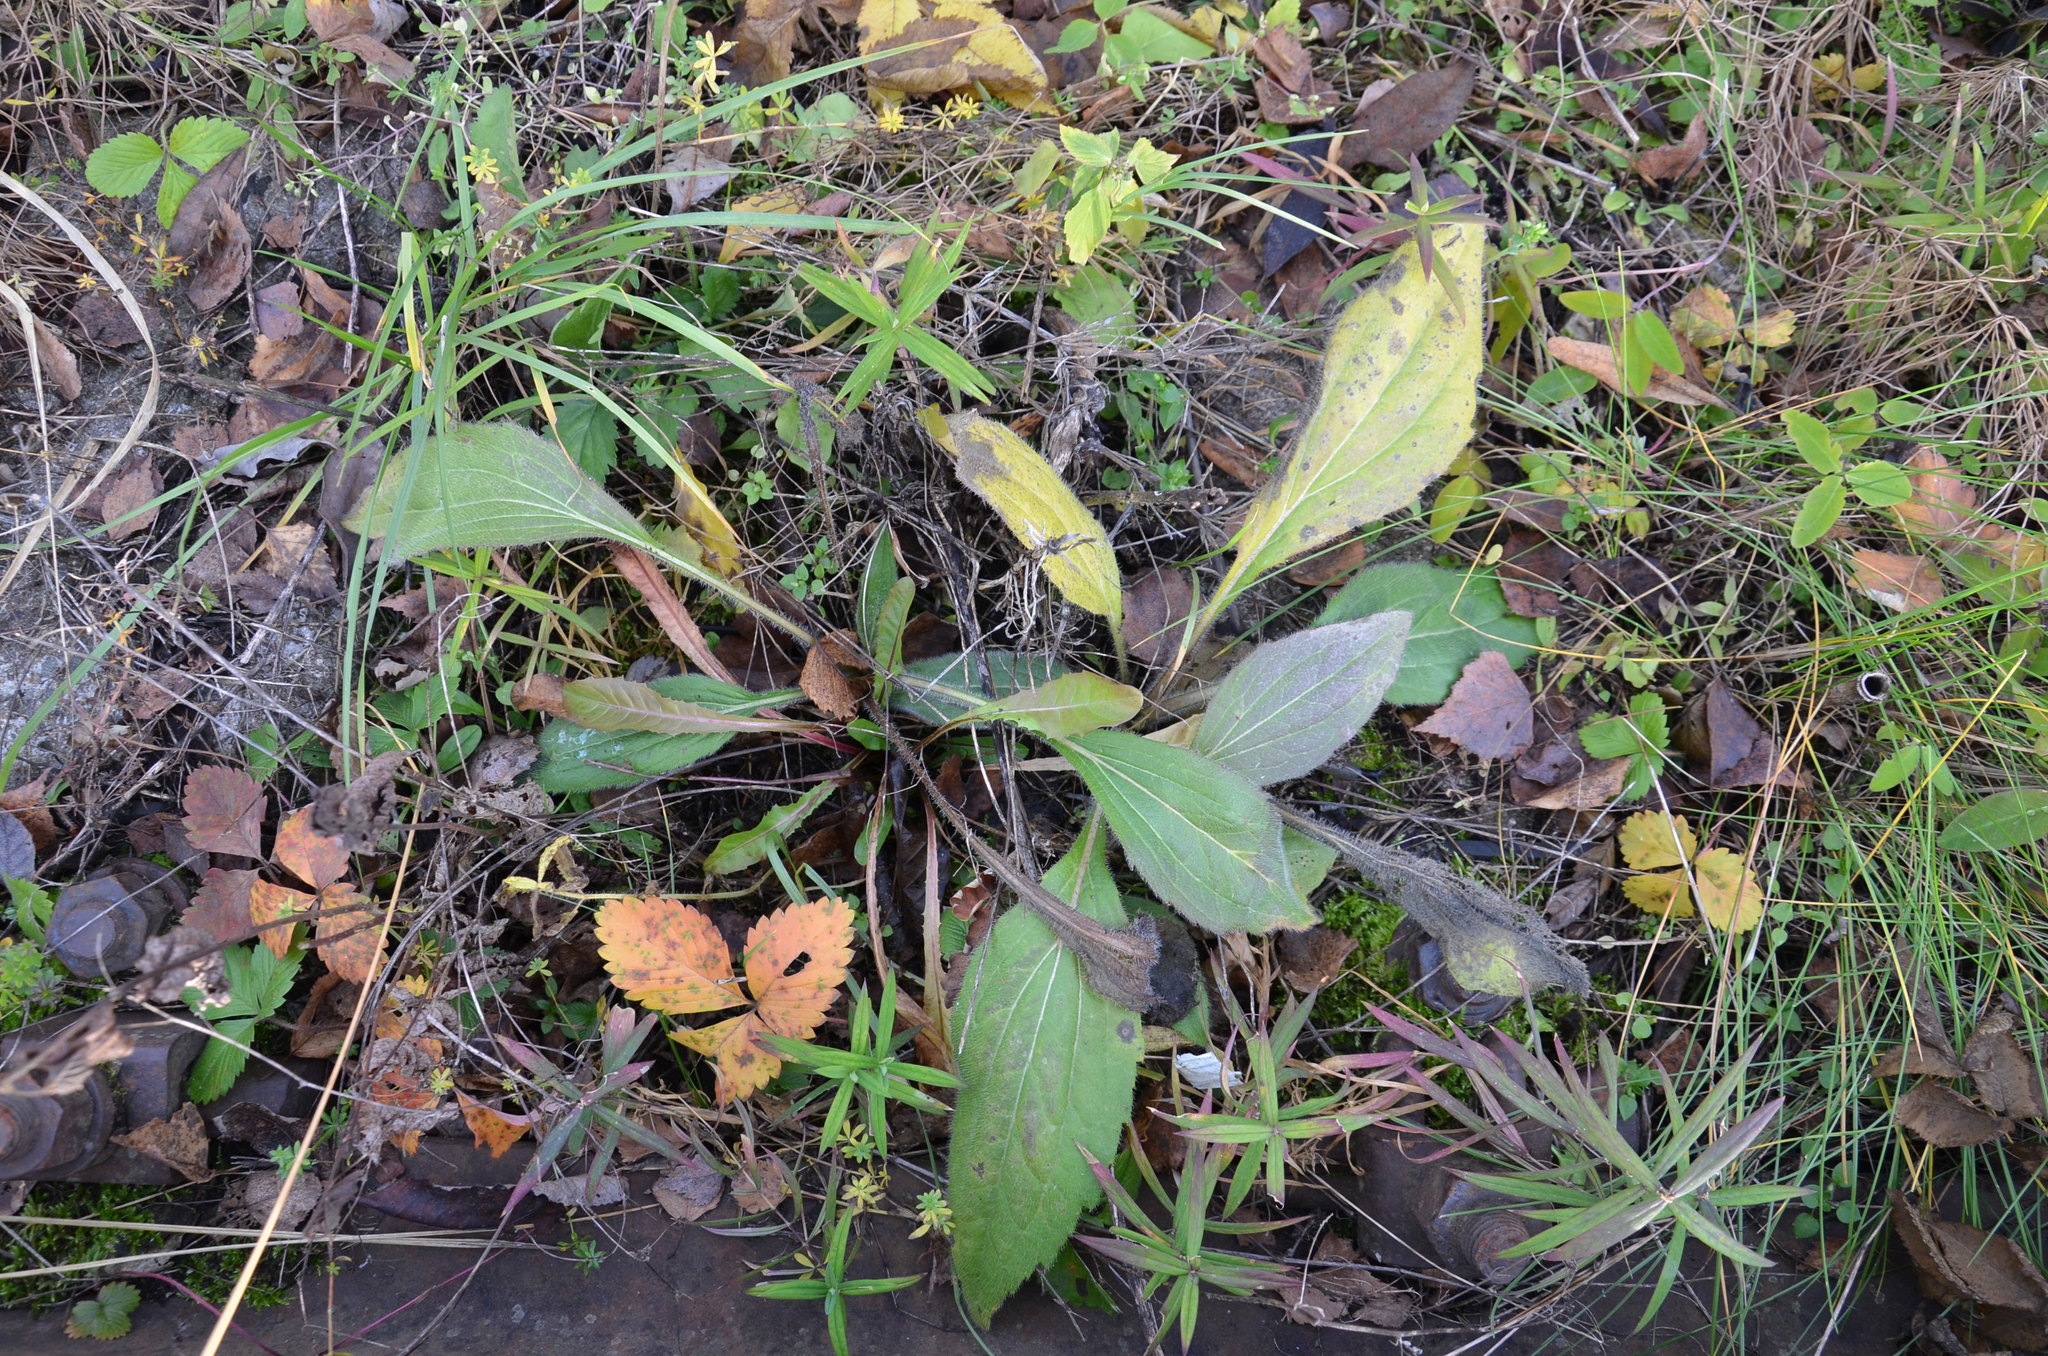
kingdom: Plantae
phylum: Tracheophyta
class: Magnoliopsida
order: Asterales
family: Asteraceae
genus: Rudbeckia
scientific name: Rudbeckia hirta
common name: Black-eyed-susan
